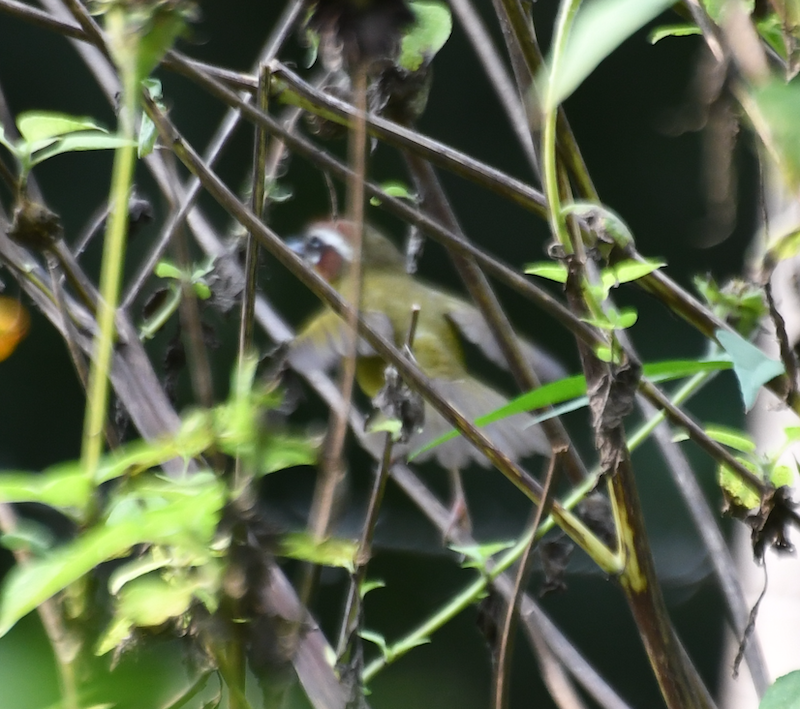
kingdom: Animalia
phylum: Chordata
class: Aves
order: Passeriformes
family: Parulidae
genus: Basileuterus
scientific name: Basileuterus rufifrons
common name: Rufous-capped warbler
